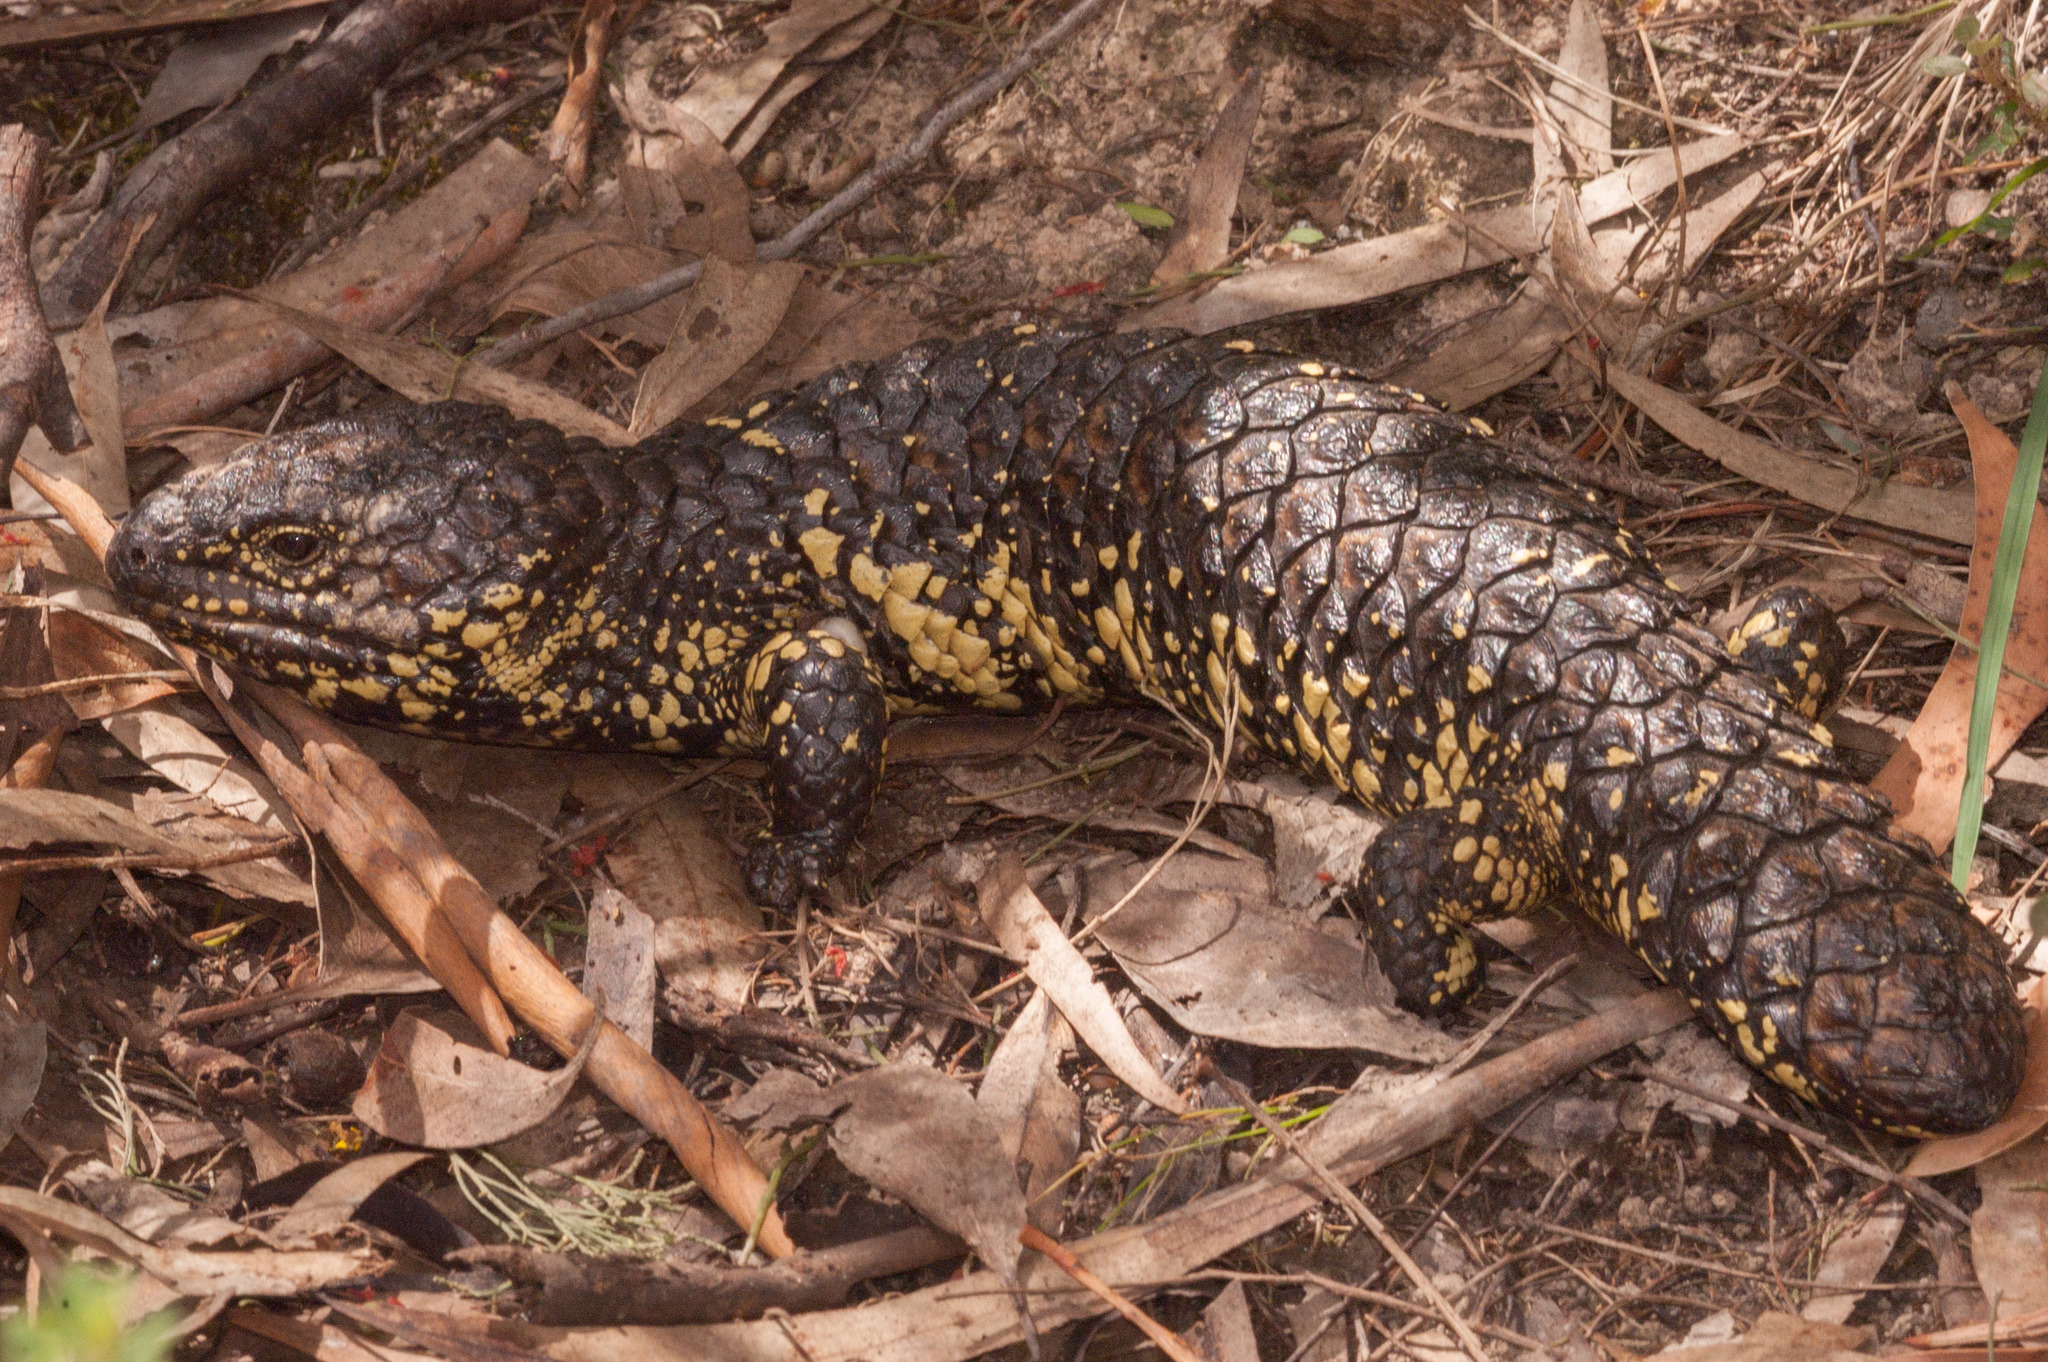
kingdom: Animalia
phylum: Chordata
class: Squamata
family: Scincidae
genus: Tiliqua
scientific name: Tiliqua rugosa
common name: Pinecone lizard
